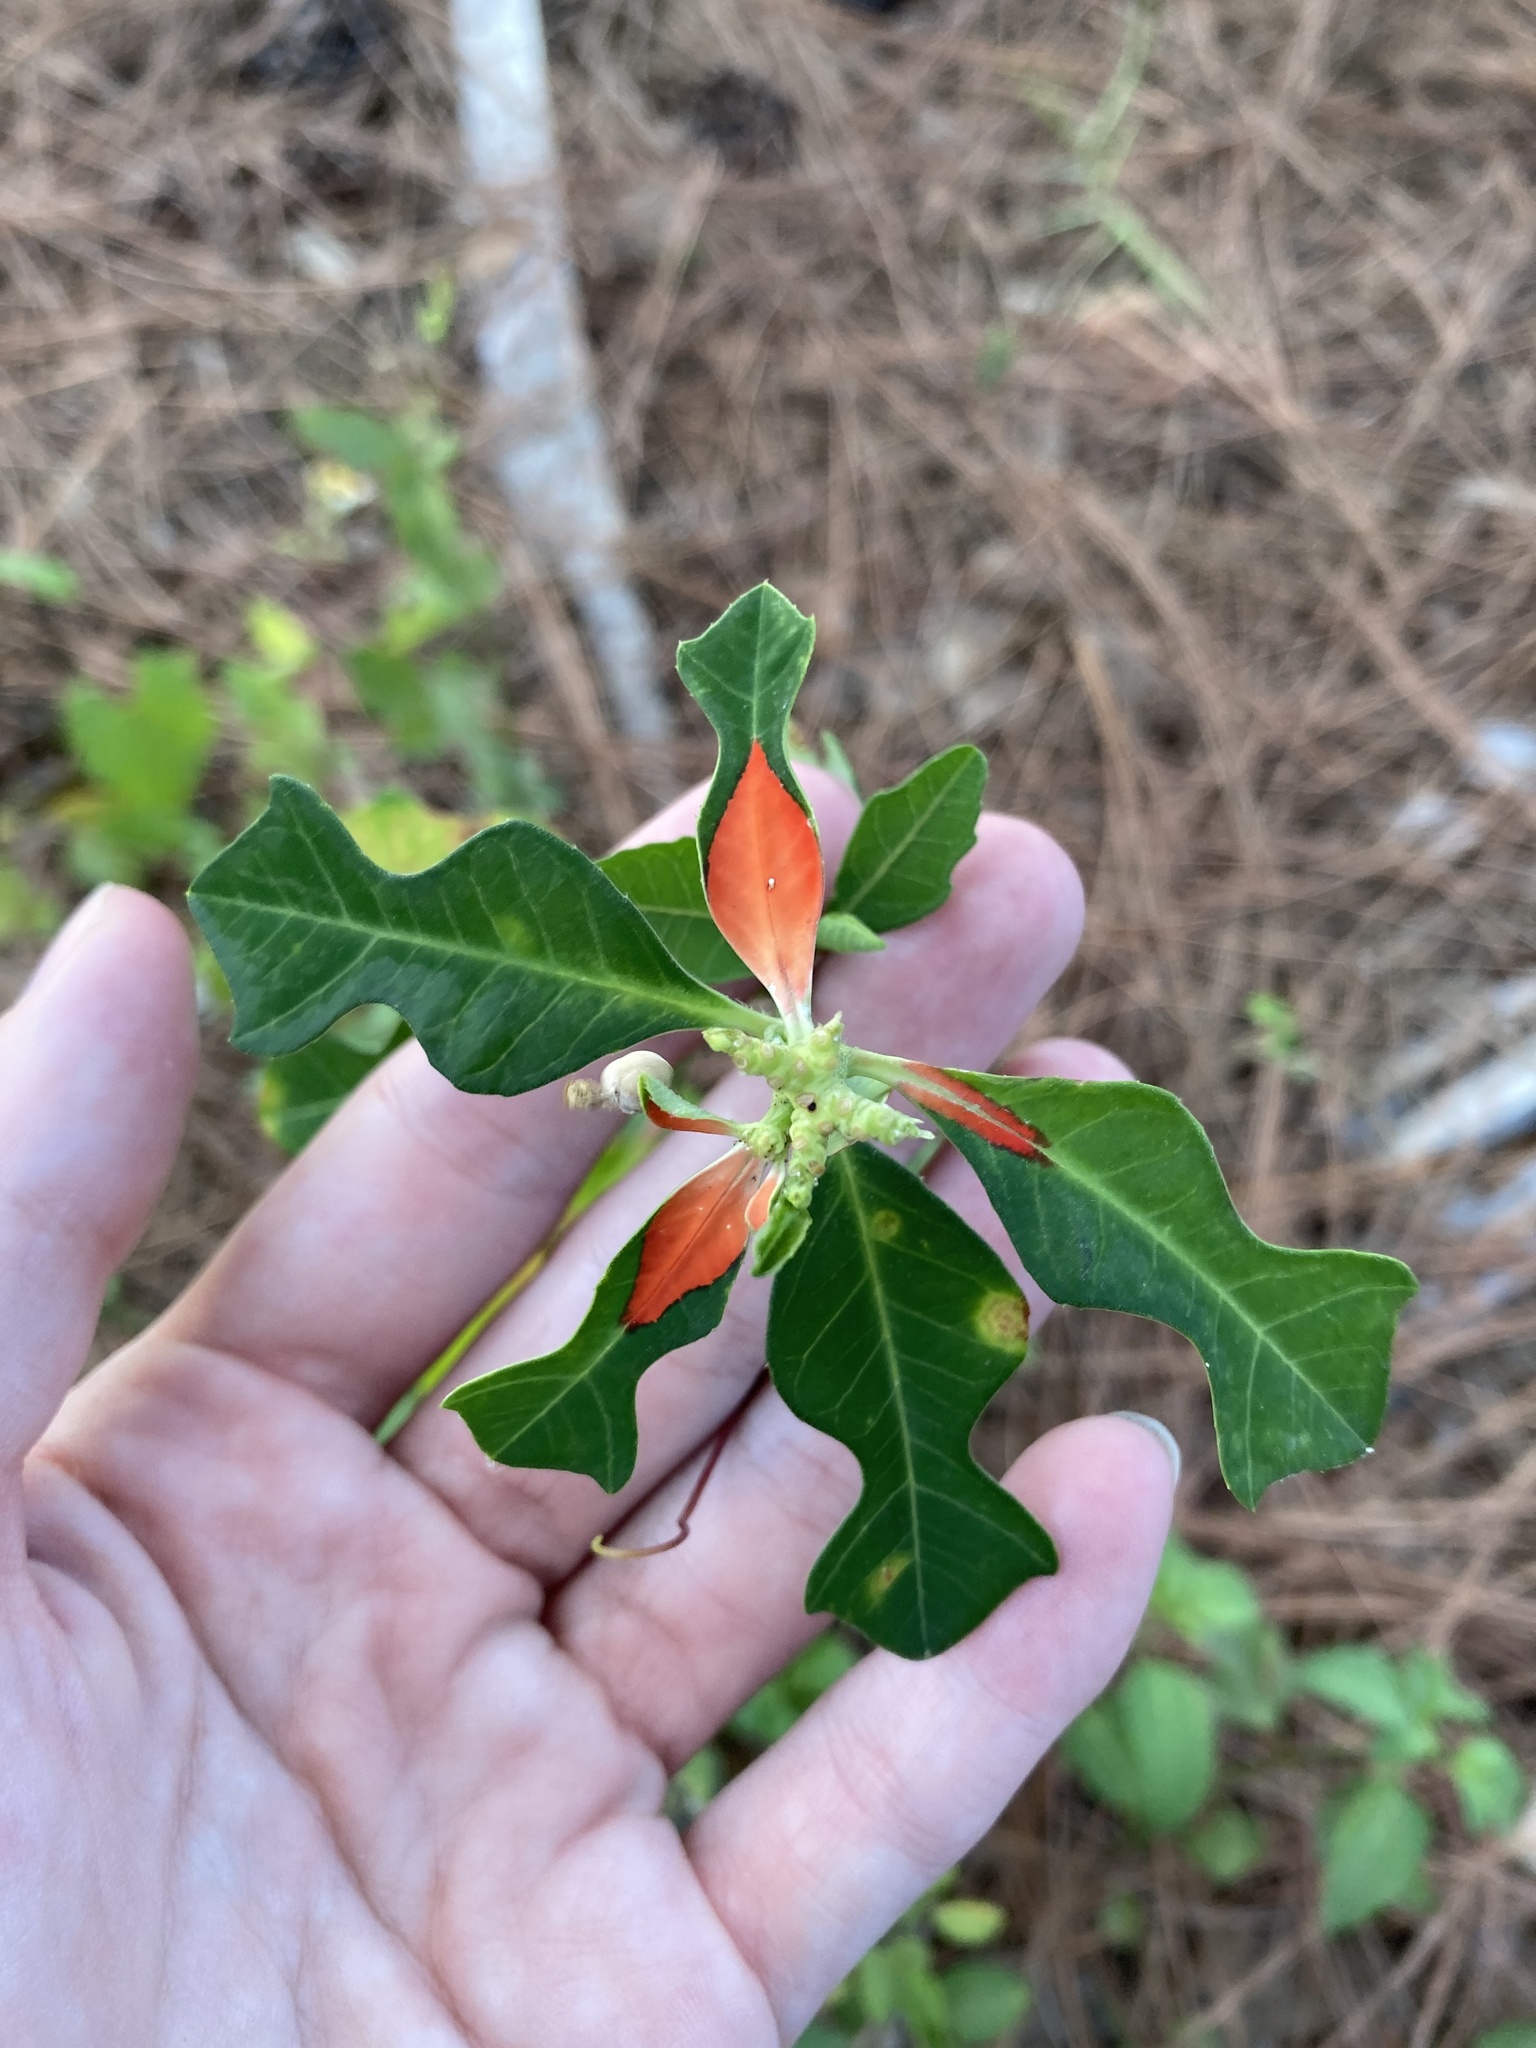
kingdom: Plantae
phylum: Tracheophyta
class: Magnoliopsida
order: Malpighiales
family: Euphorbiaceae
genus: Euphorbia
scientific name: Euphorbia heterophylla
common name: Mexican fireplant
